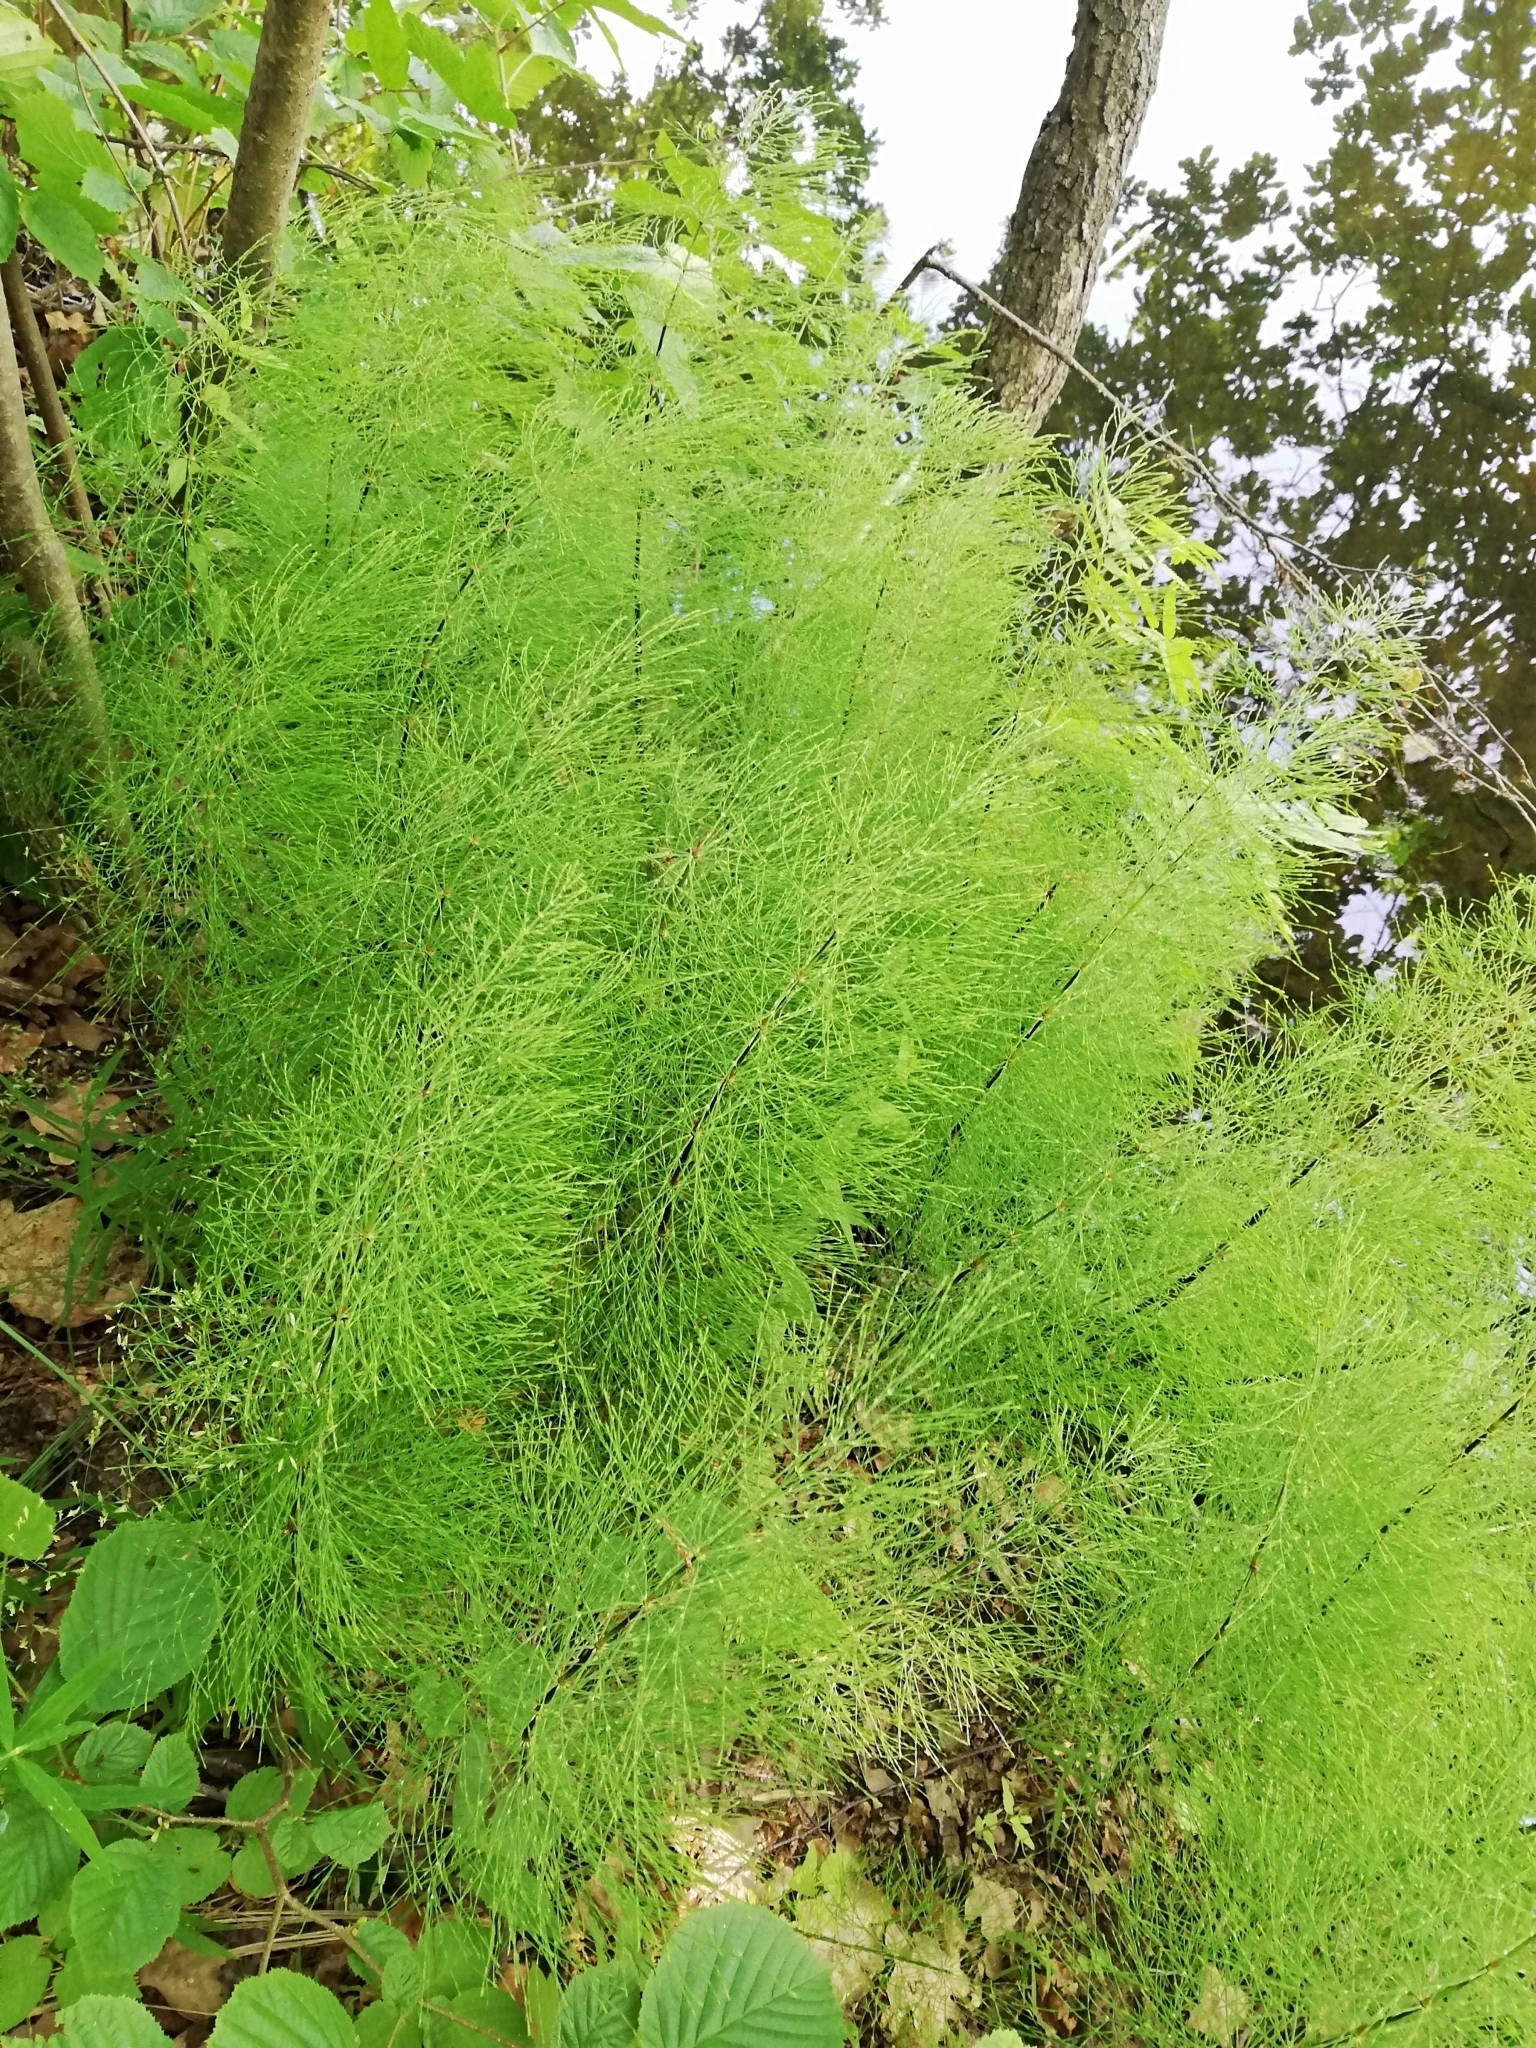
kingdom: Plantae
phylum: Tracheophyta
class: Polypodiopsida
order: Equisetales
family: Equisetaceae
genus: Equisetum
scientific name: Equisetum sylvaticum
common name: Wood horsetail
